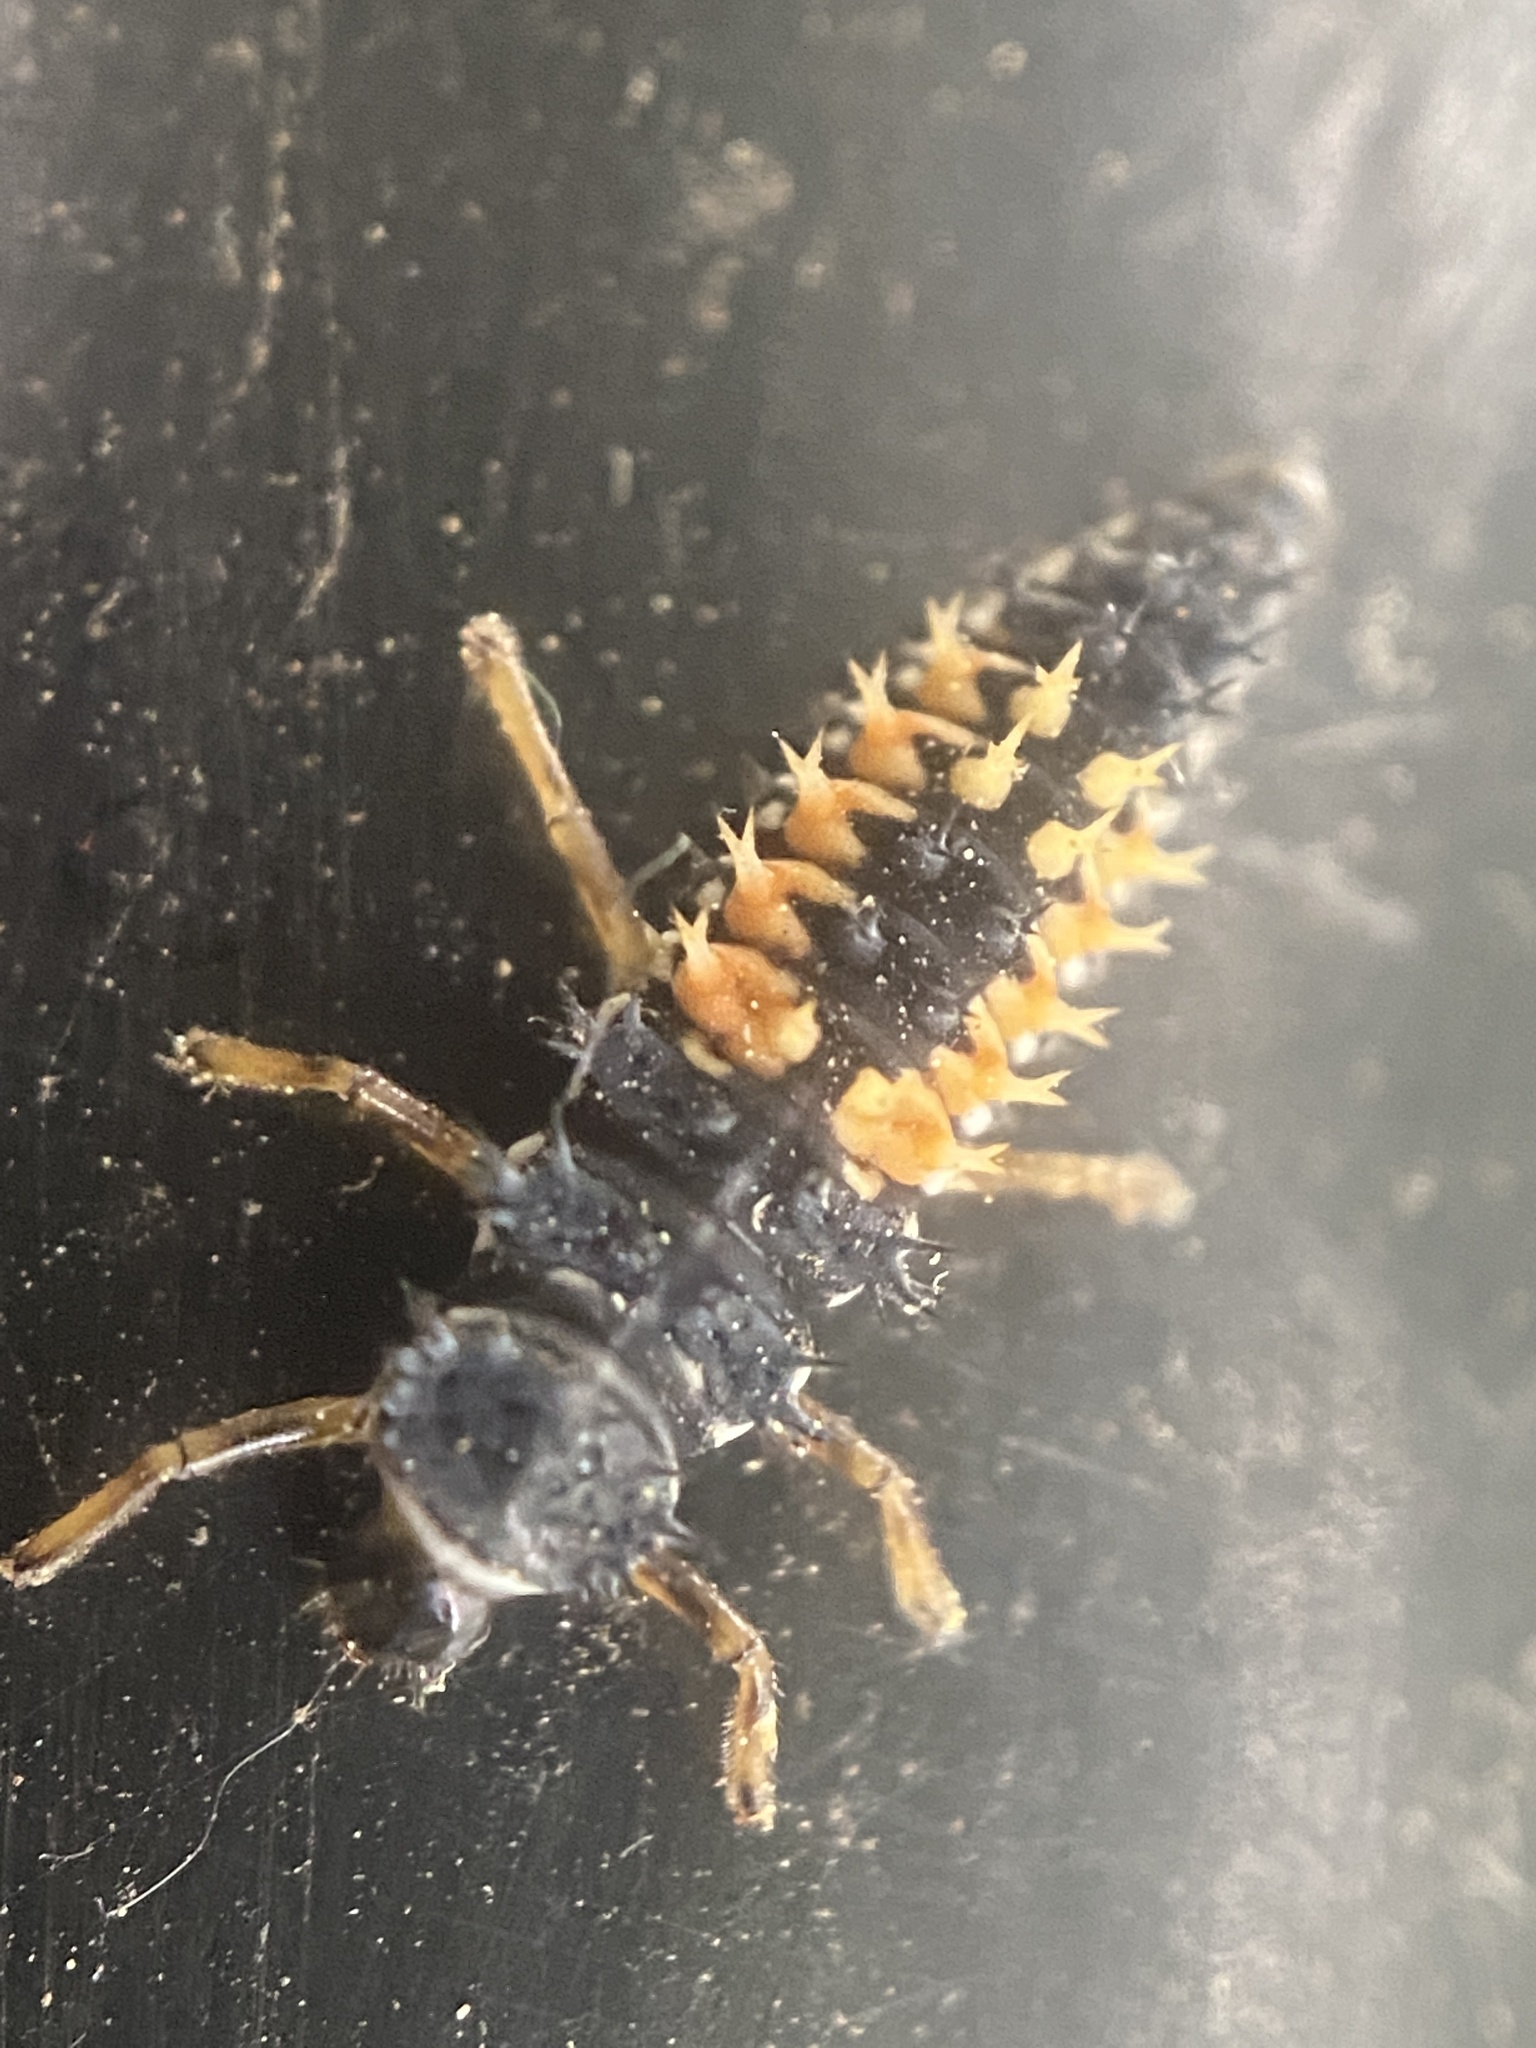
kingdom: Animalia
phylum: Arthropoda
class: Insecta
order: Coleoptera
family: Coccinellidae
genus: Harmonia
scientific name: Harmonia axyridis
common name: Harlequin ladybird
